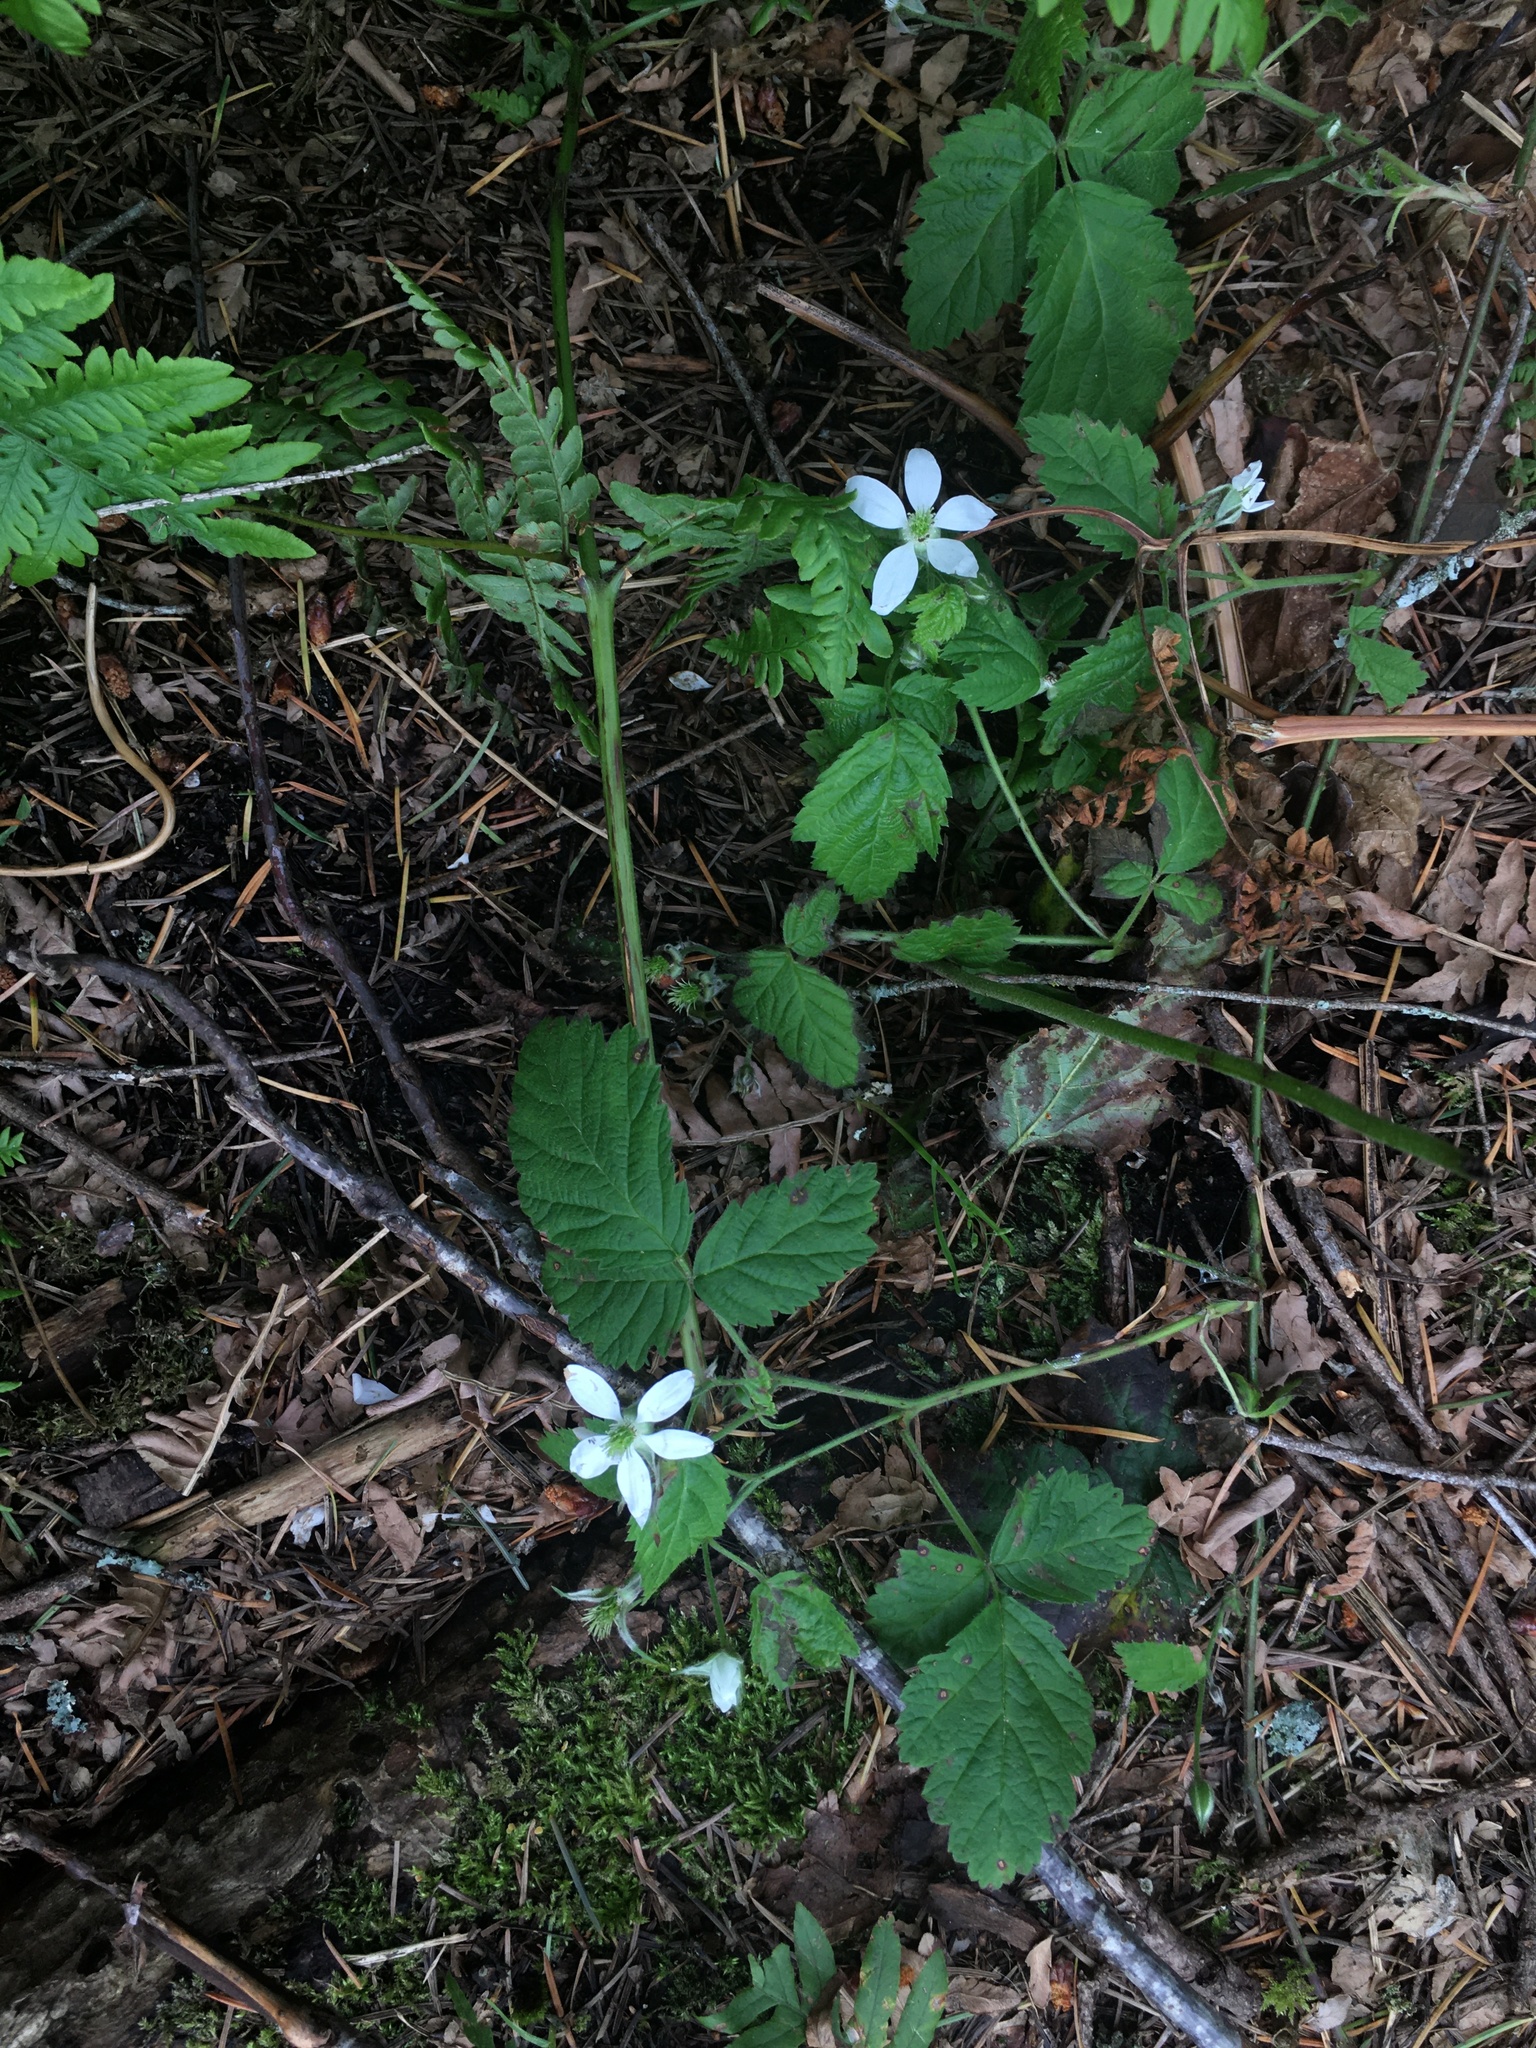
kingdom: Plantae
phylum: Tracheophyta
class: Magnoliopsida
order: Rosales
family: Rosaceae
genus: Rubus
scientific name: Rubus ursinus
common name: Pacific blackberry
